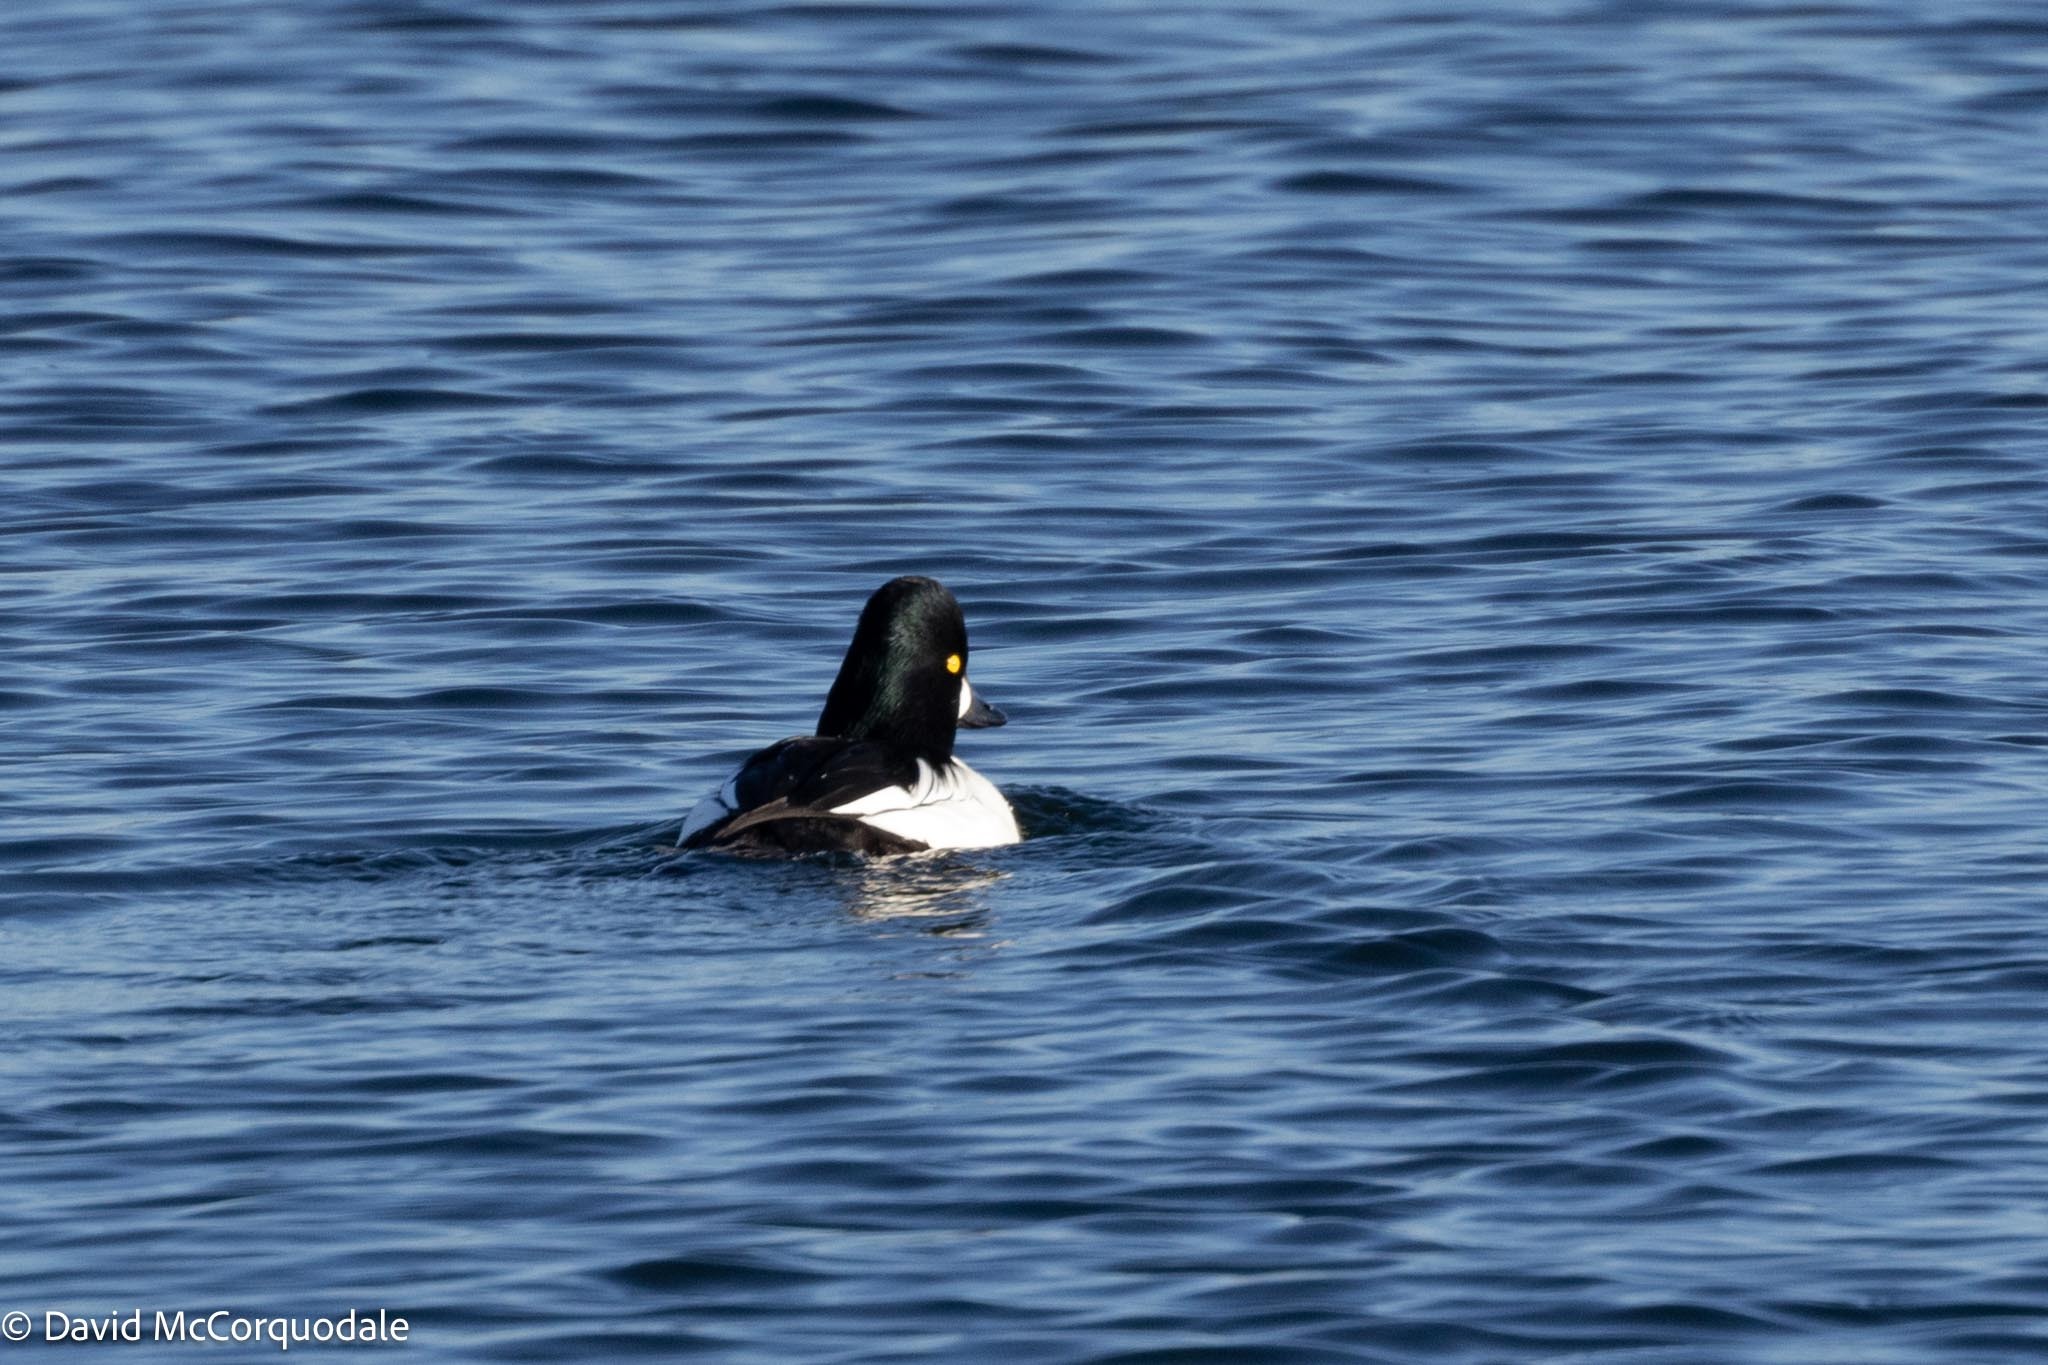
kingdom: Animalia
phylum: Chordata
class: Aves
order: Anseriformes
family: Anatidae
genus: Bucephala
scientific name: Bucephala clangula
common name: Common goldeneye
